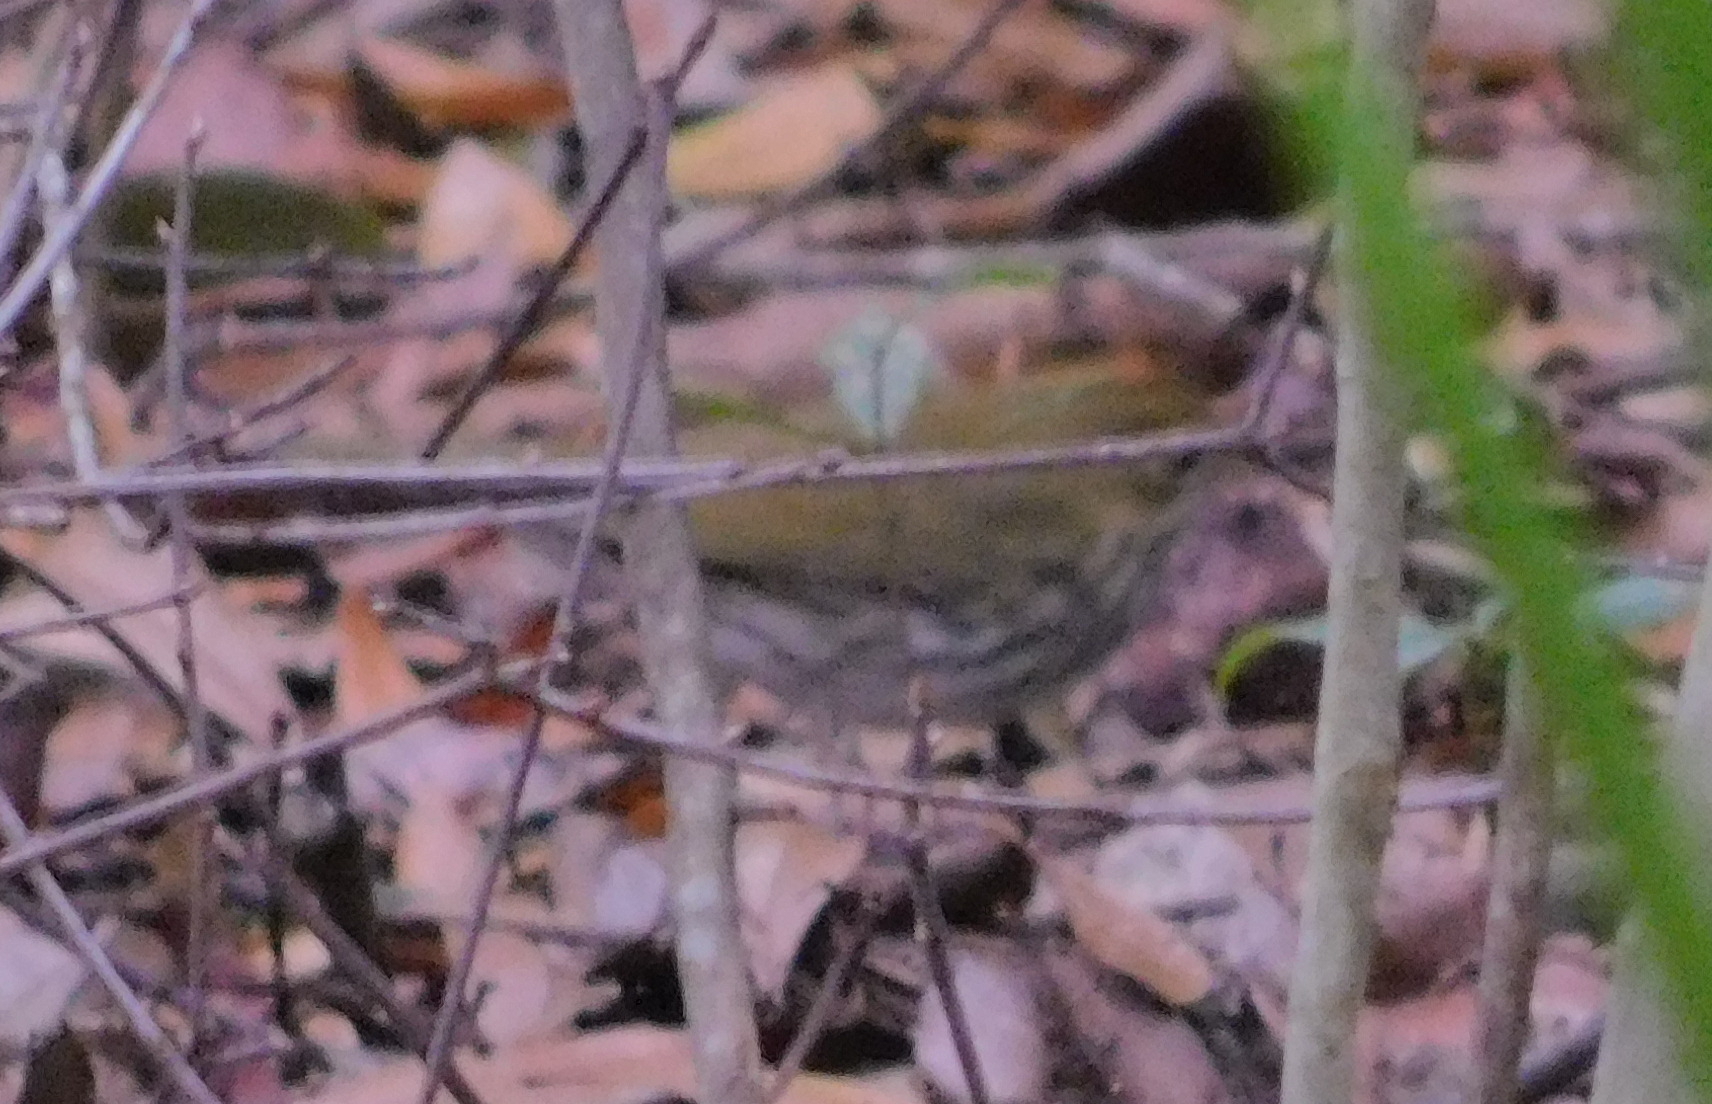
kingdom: Animalia
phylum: Chordata
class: Aves
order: Passeriformes
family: Parulidae
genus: Seiurus
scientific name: Seiurus aurocapilla
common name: Ovenbird
